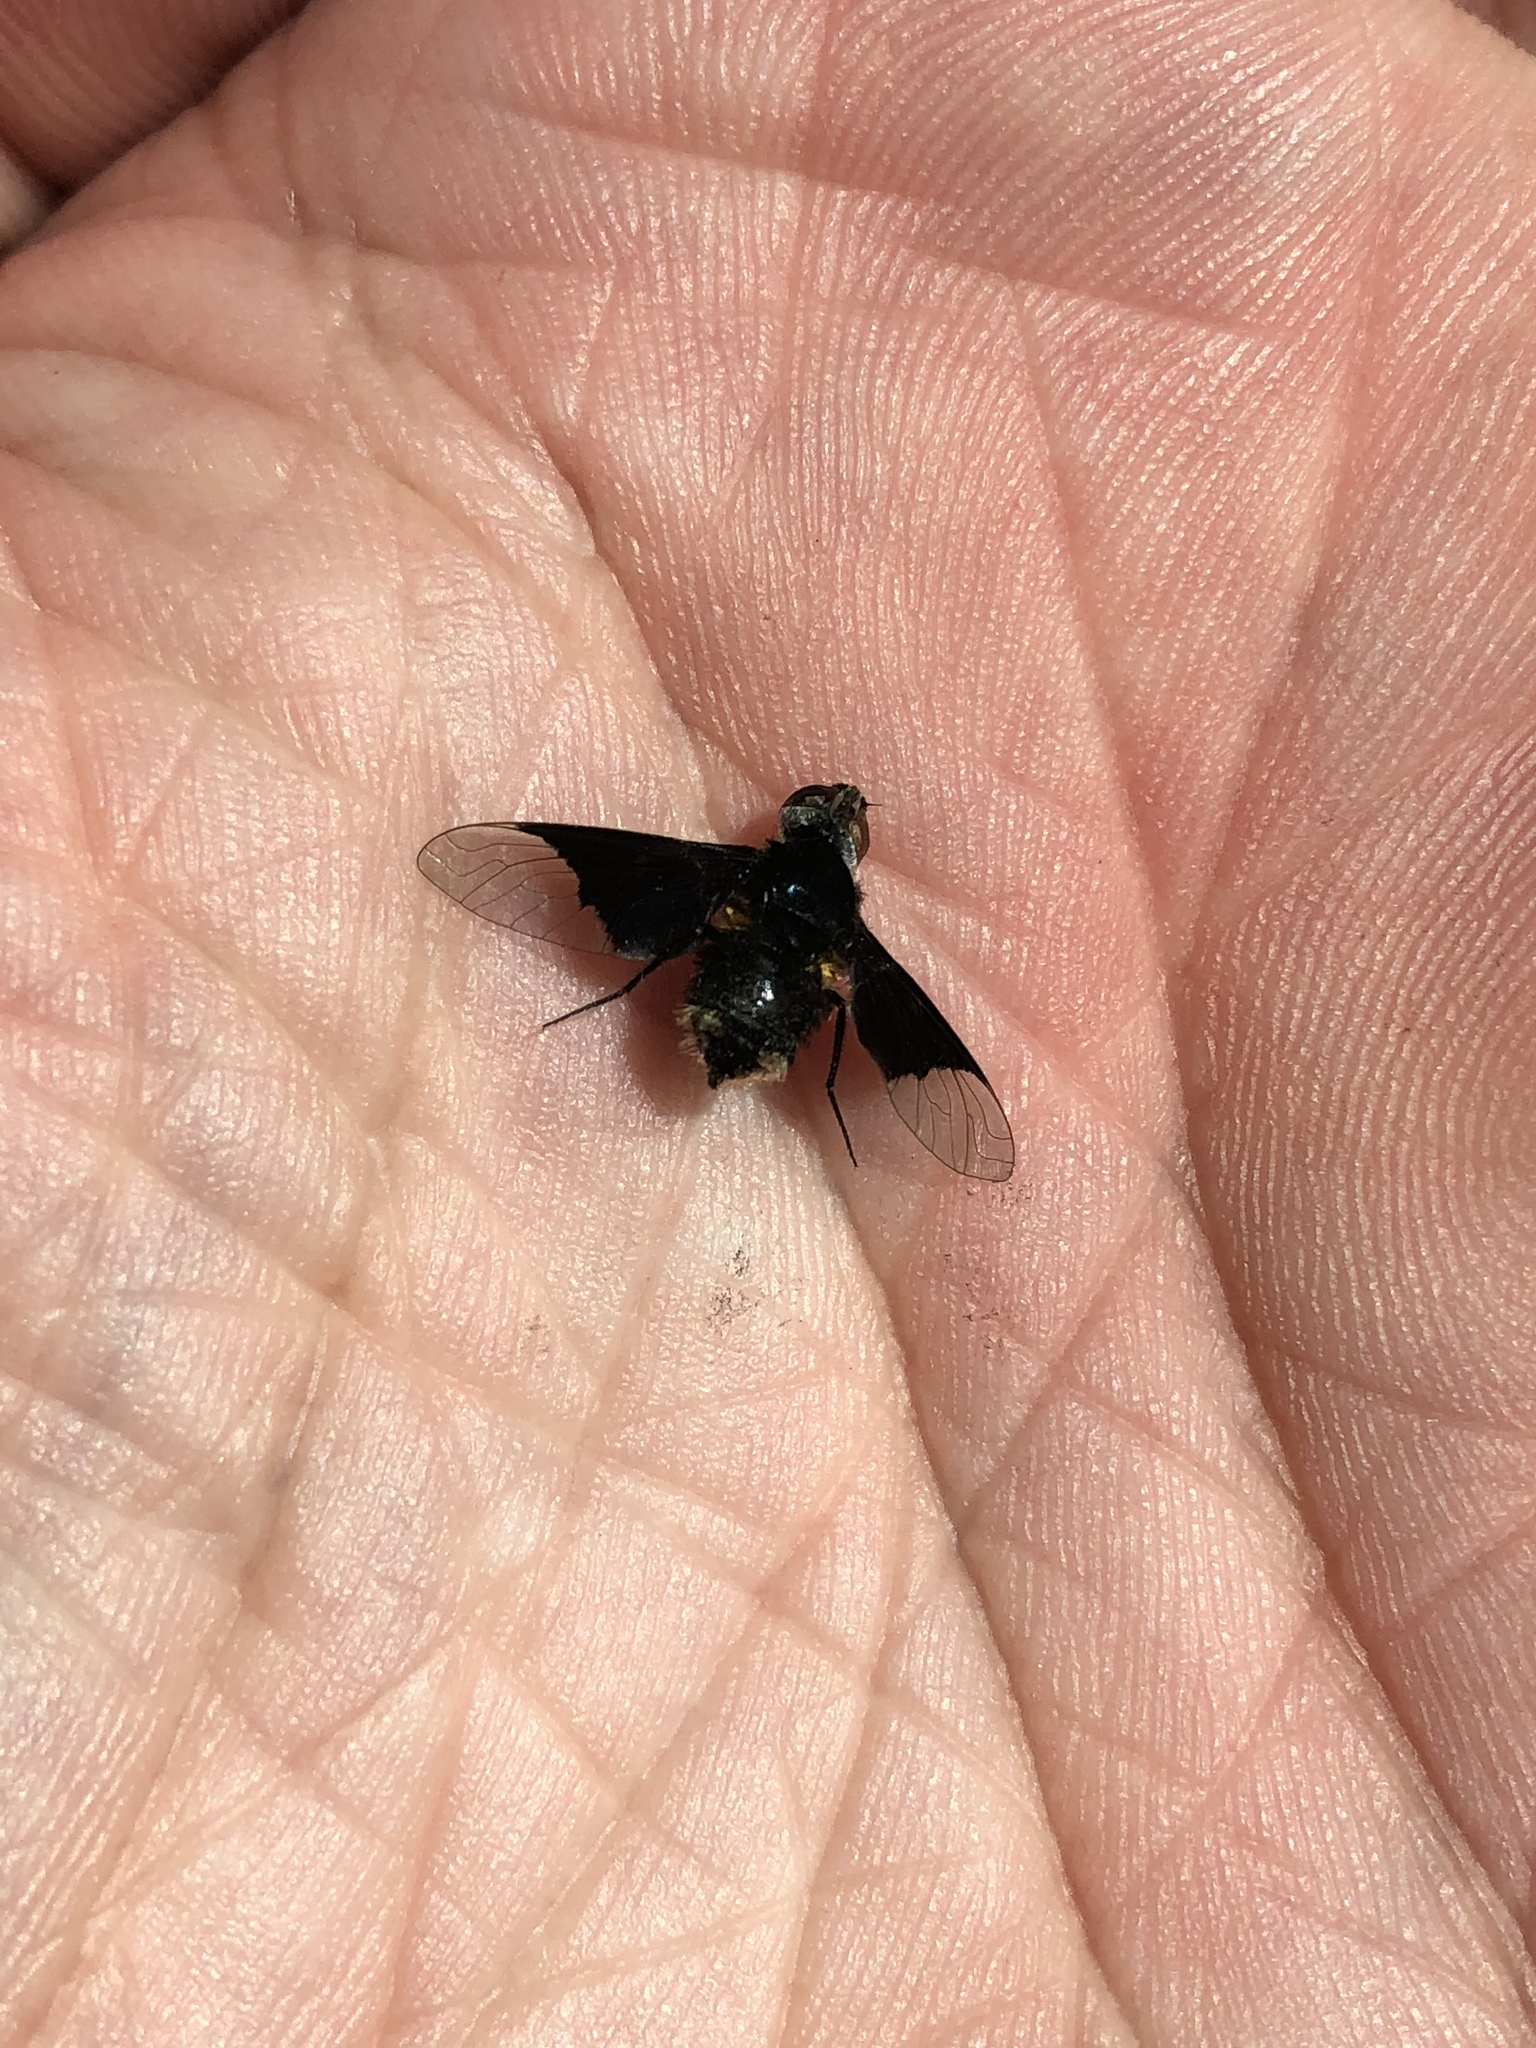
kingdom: Animalia
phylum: Arthropoda
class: Insecta
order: Diptera
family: Bombyliidae
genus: Ins
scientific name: Ins celeris
